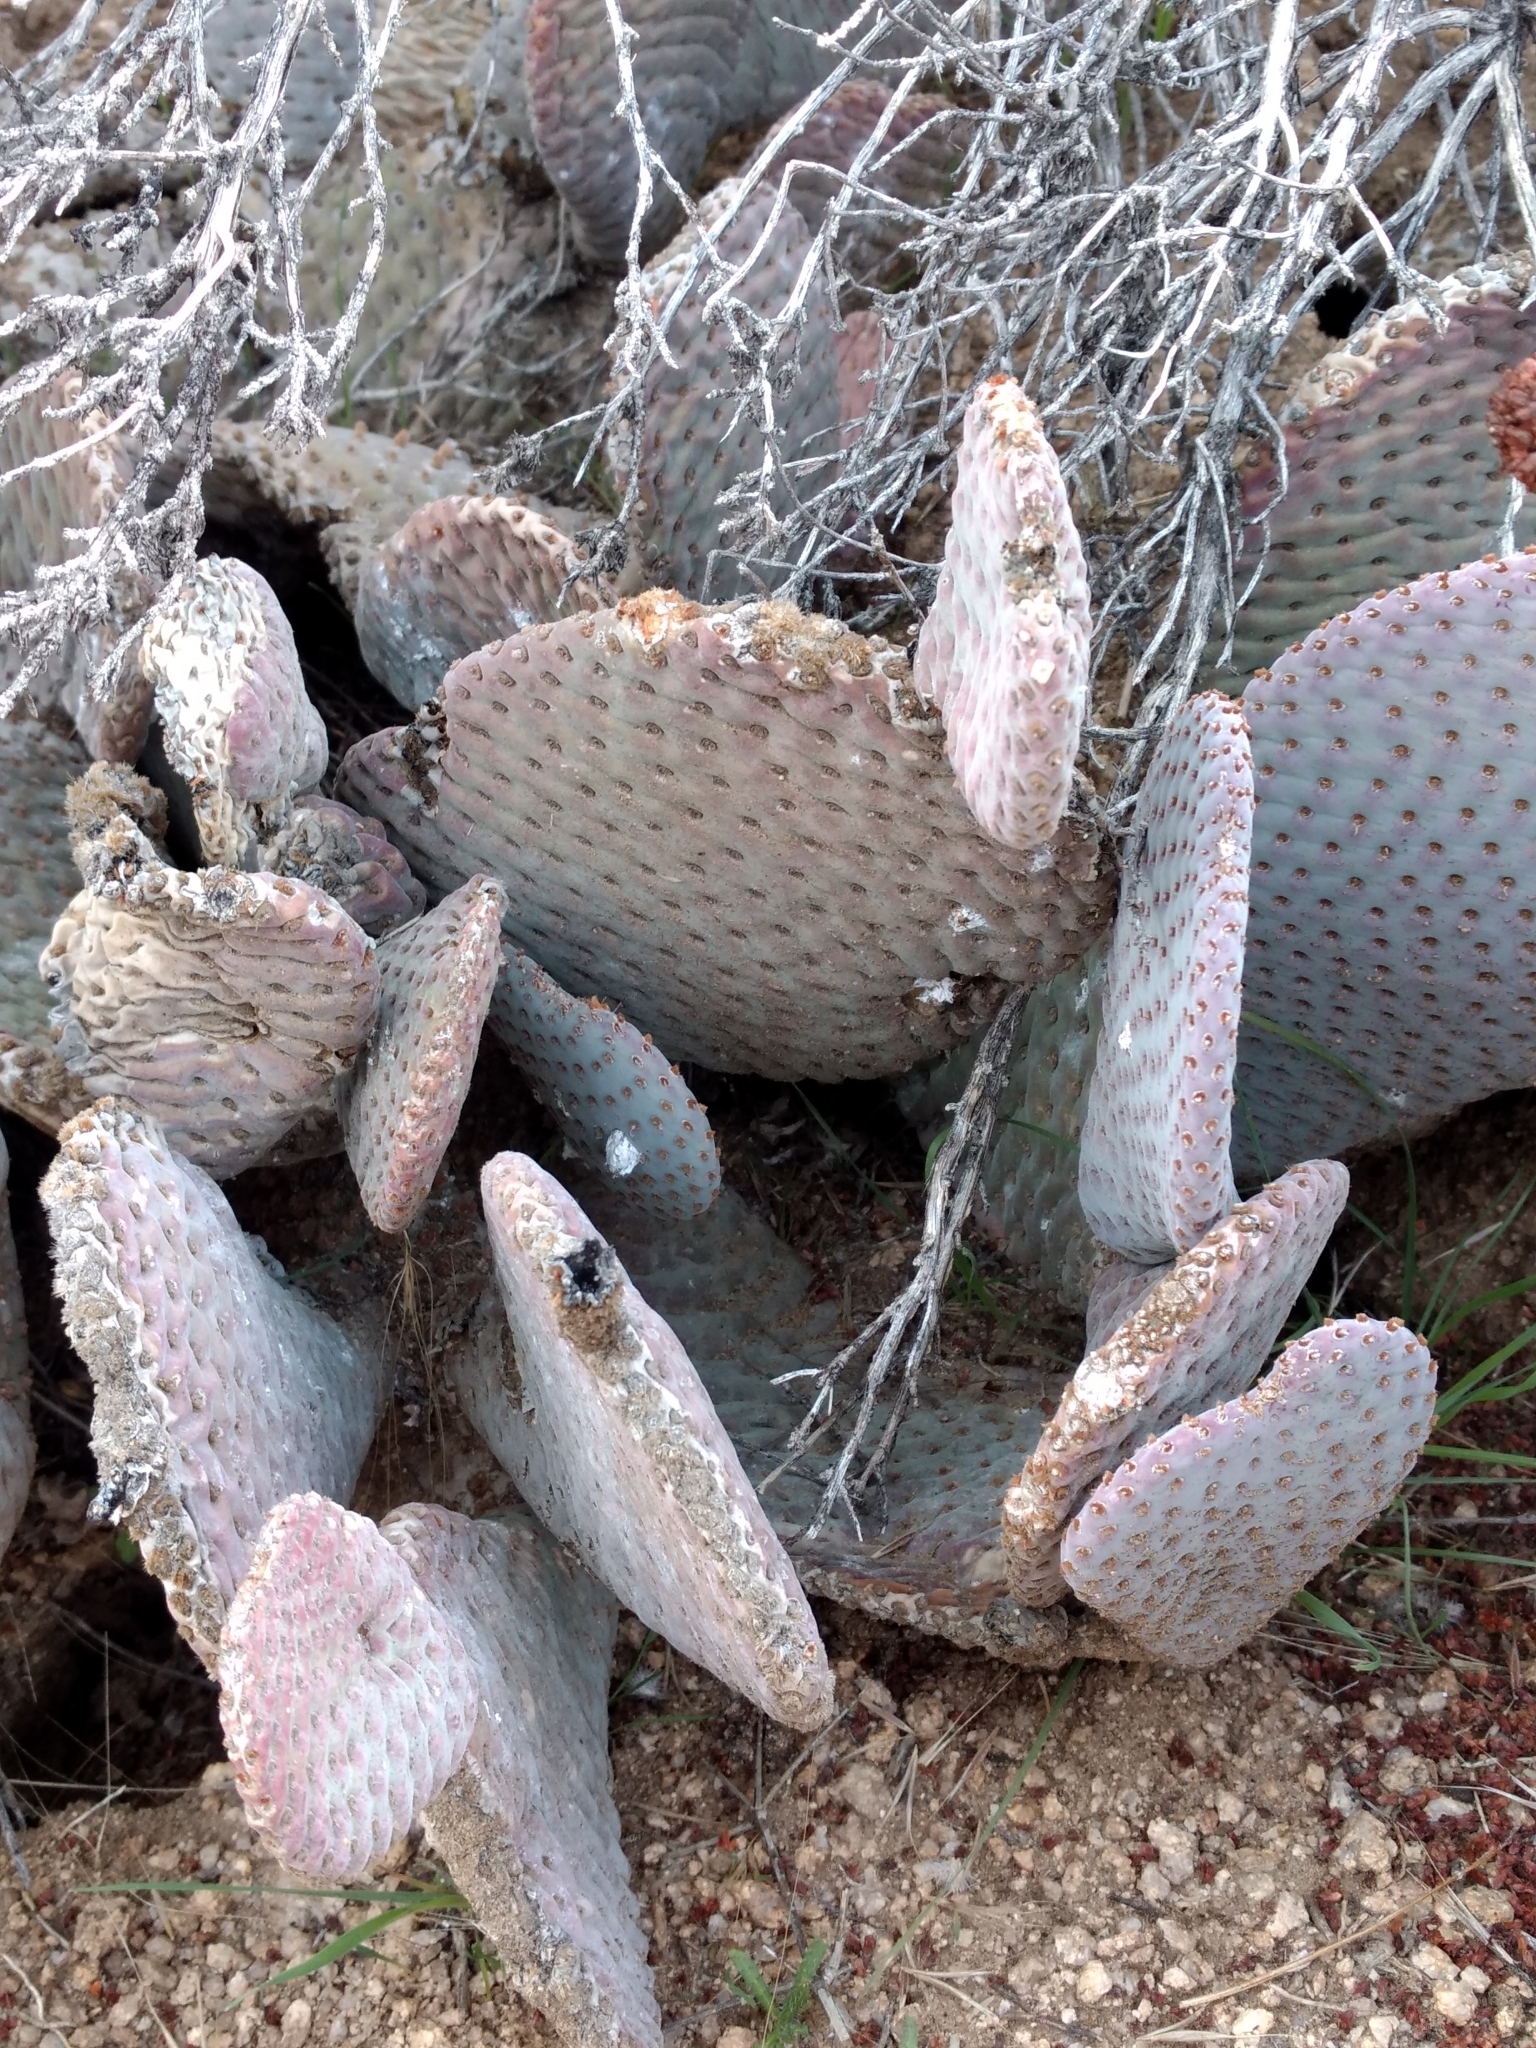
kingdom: Plantae
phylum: Tracheophyta
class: Magnoliopsida
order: Caryophyllales
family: Cactaceae
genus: Opuntia
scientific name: Opuntia basilaris
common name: Beavertail prickly-pear
